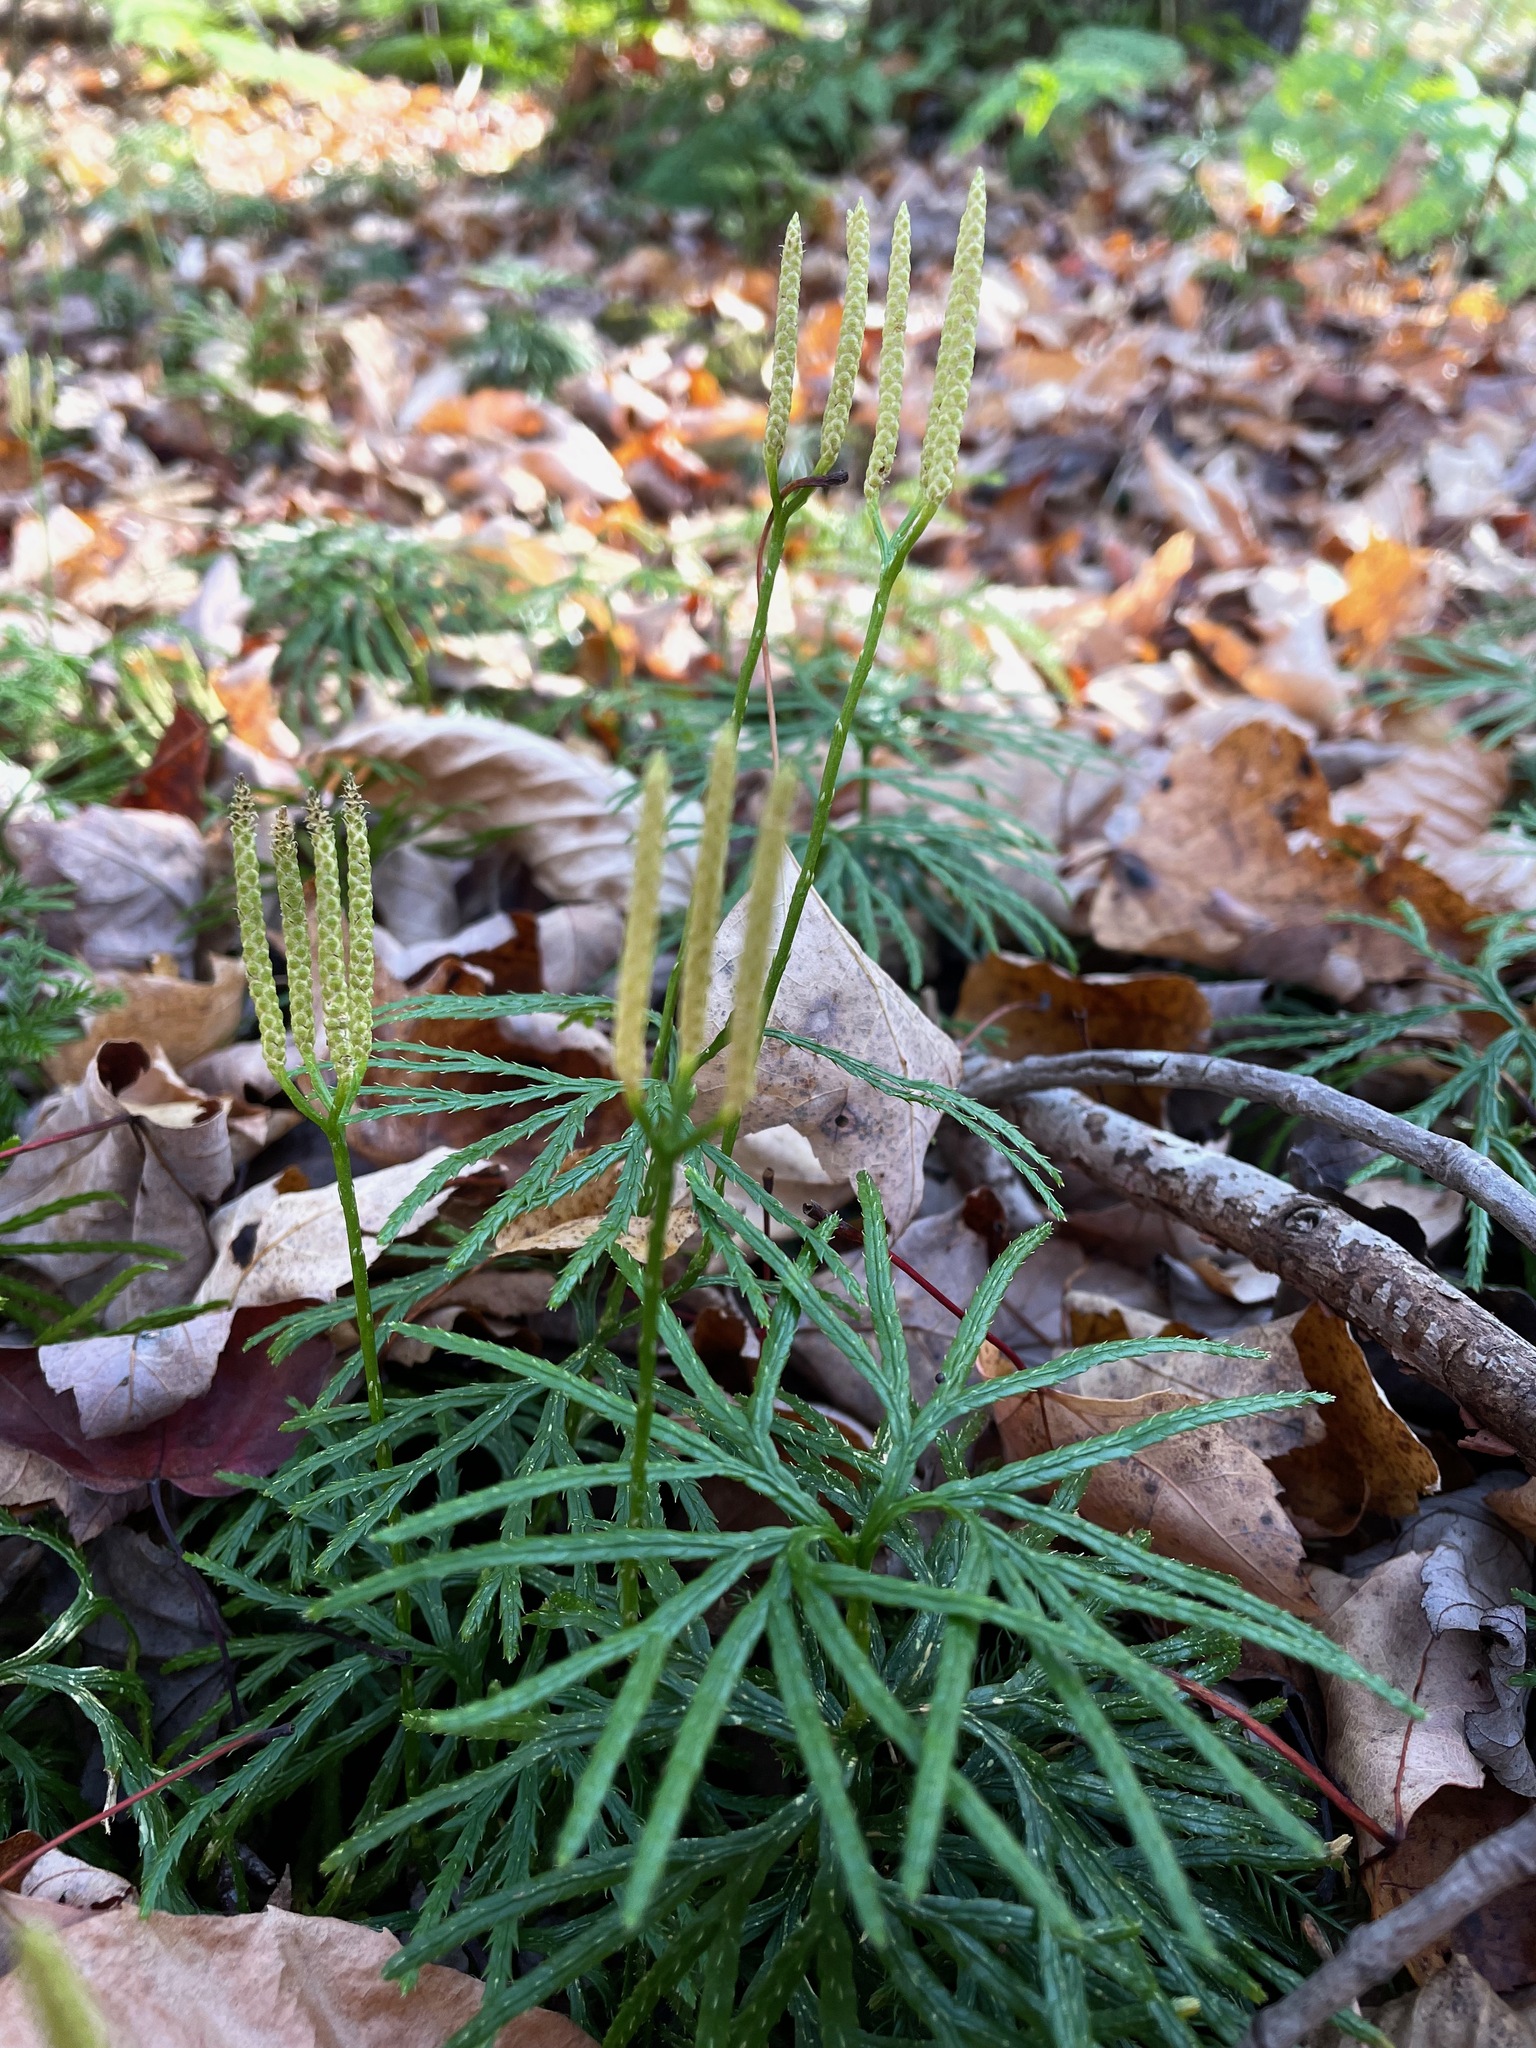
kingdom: Plantae
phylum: Tracheophyta
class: Lycopodiopsida
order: Lycopodiales
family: Lycopodiaceae
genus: Diphasiastrum
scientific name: Diphasiastrum digitatum
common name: Southern running-pine
